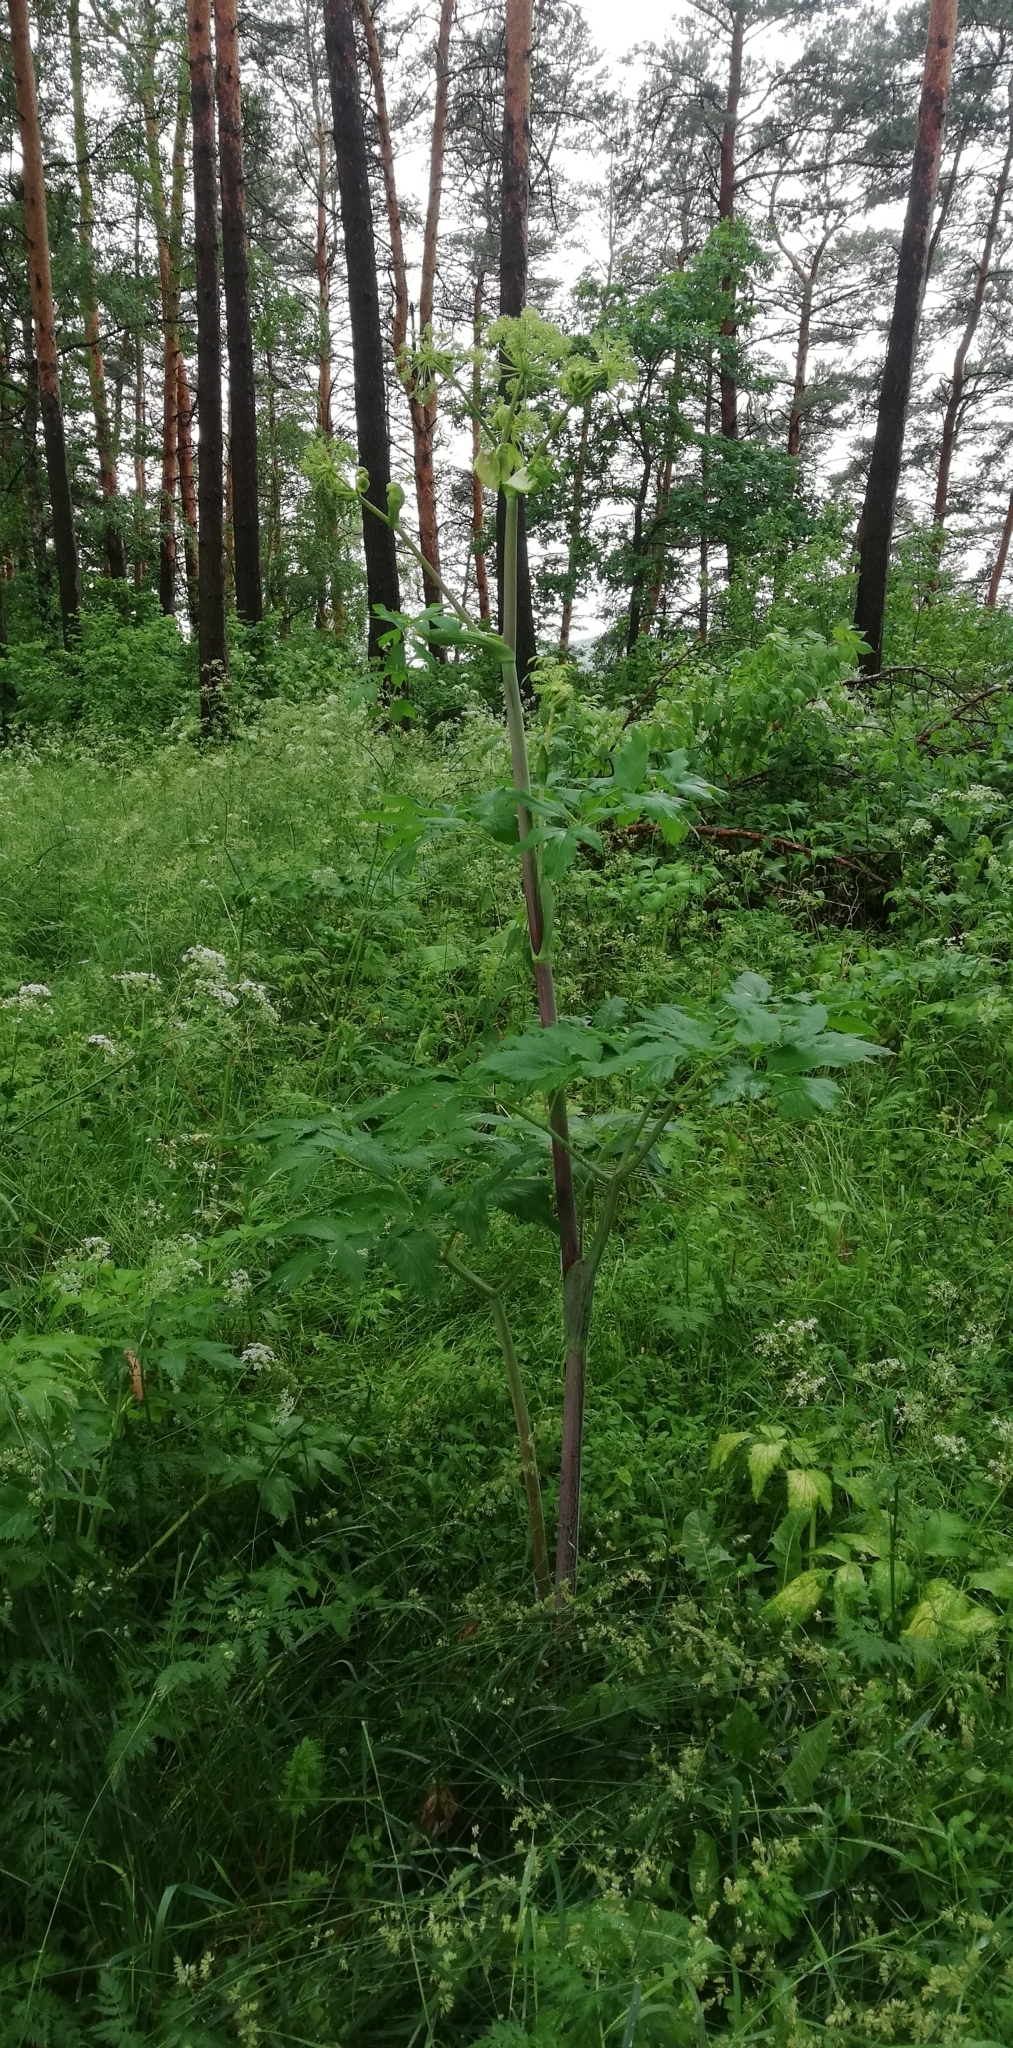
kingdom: Plantae
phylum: Tracheophyta
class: Magnoliopsida
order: Apiales
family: Apiaceae
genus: Angelica
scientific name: Angelica archangelica
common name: Garden angelica
